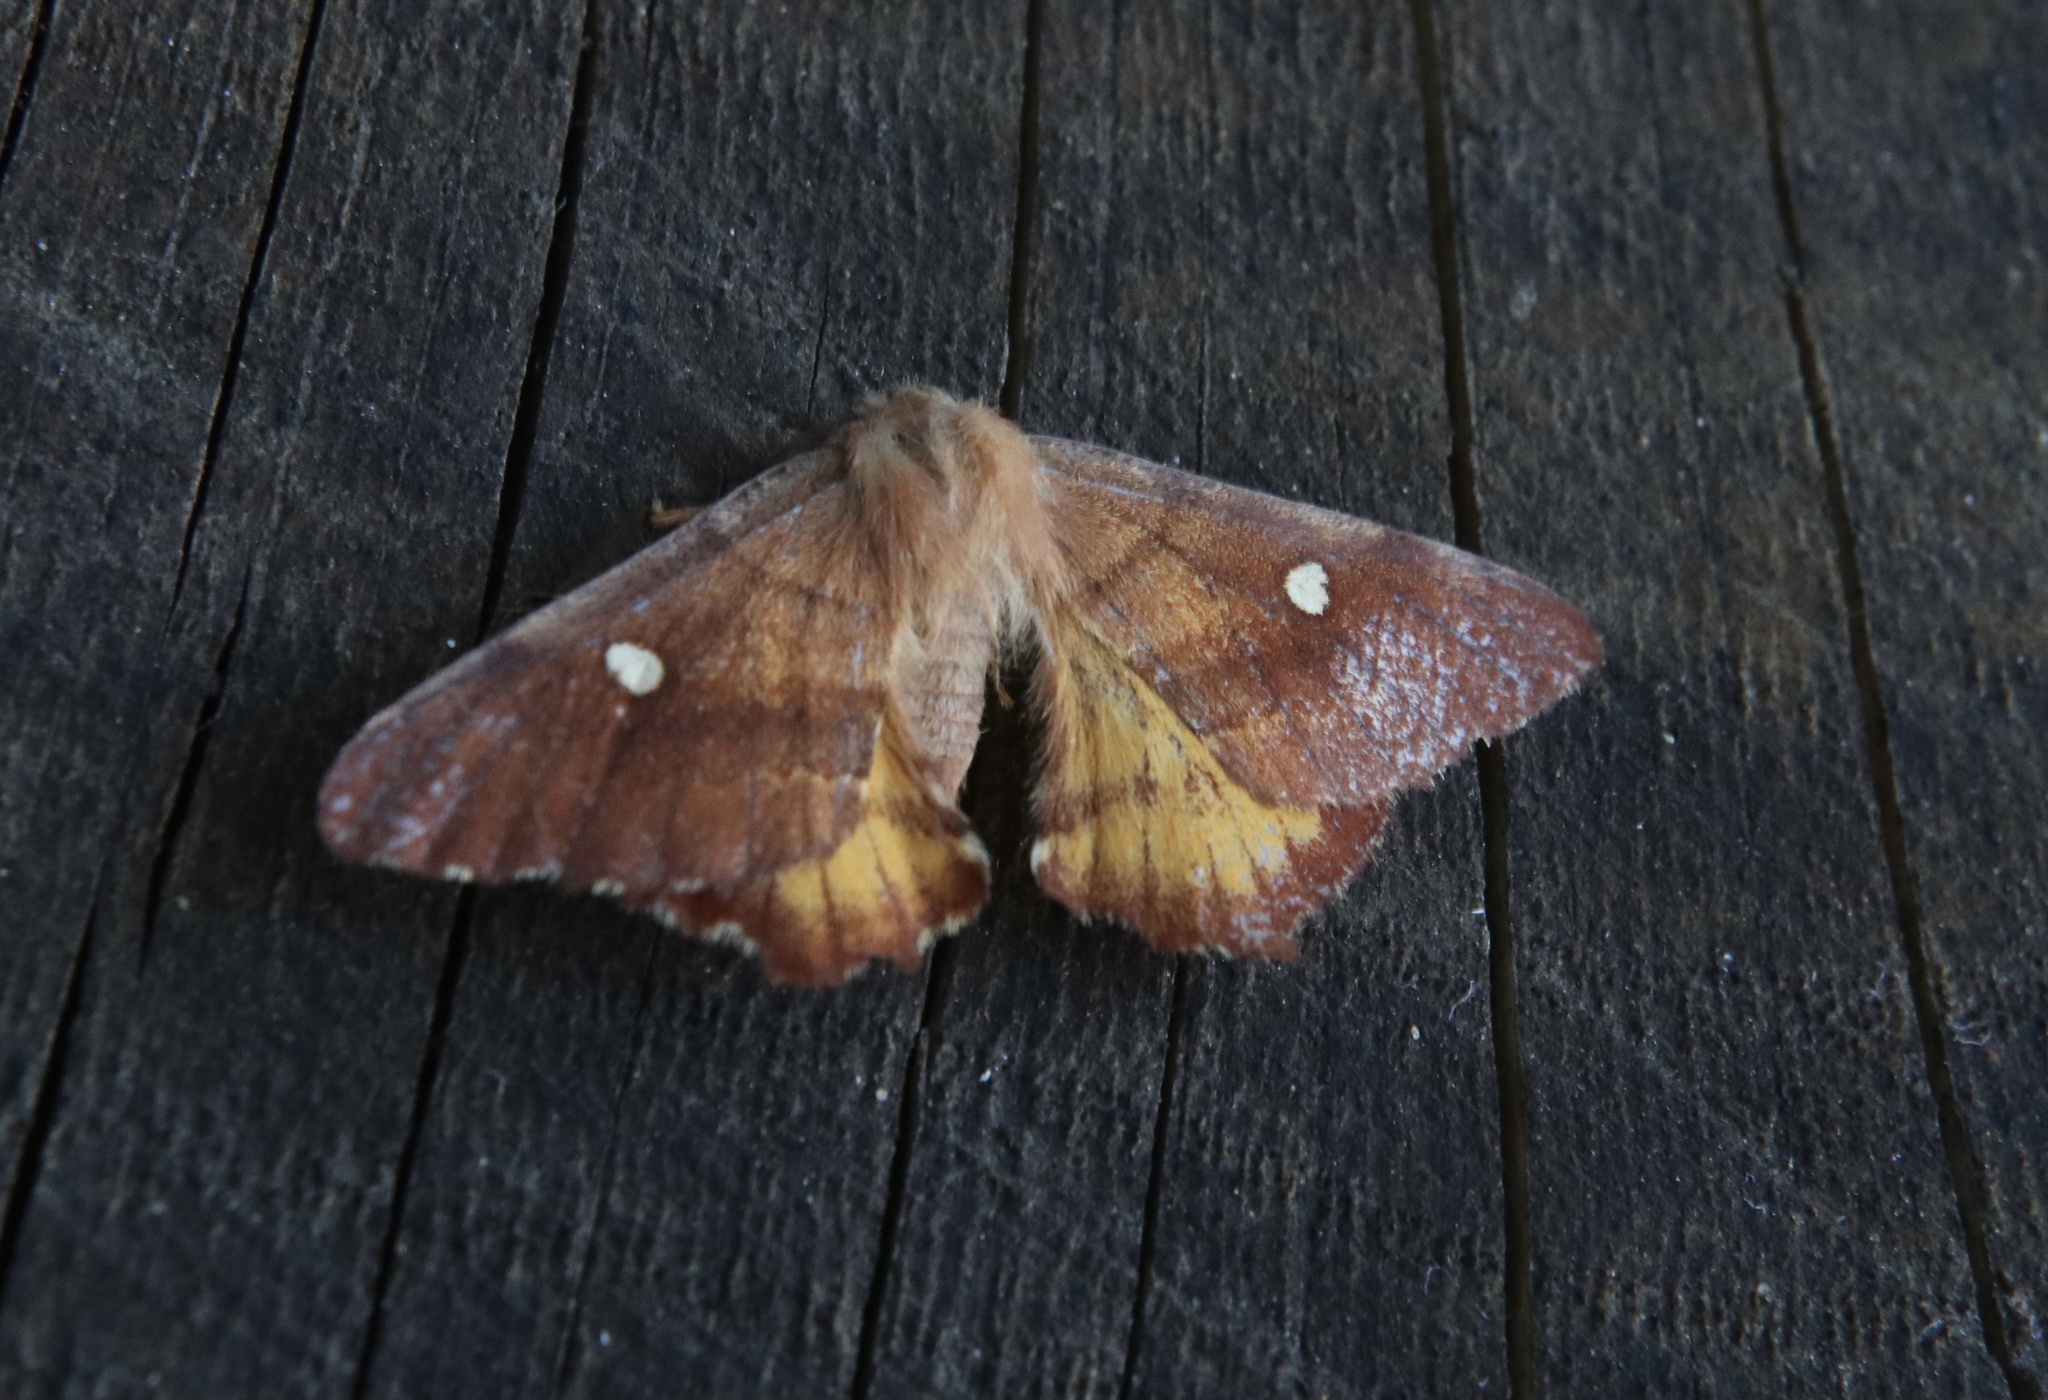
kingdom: Animalia
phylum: Arthropoda
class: Insecta
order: Lepidoptera
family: Saturniidae
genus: Microdulia
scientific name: Microdulia mirabilis
